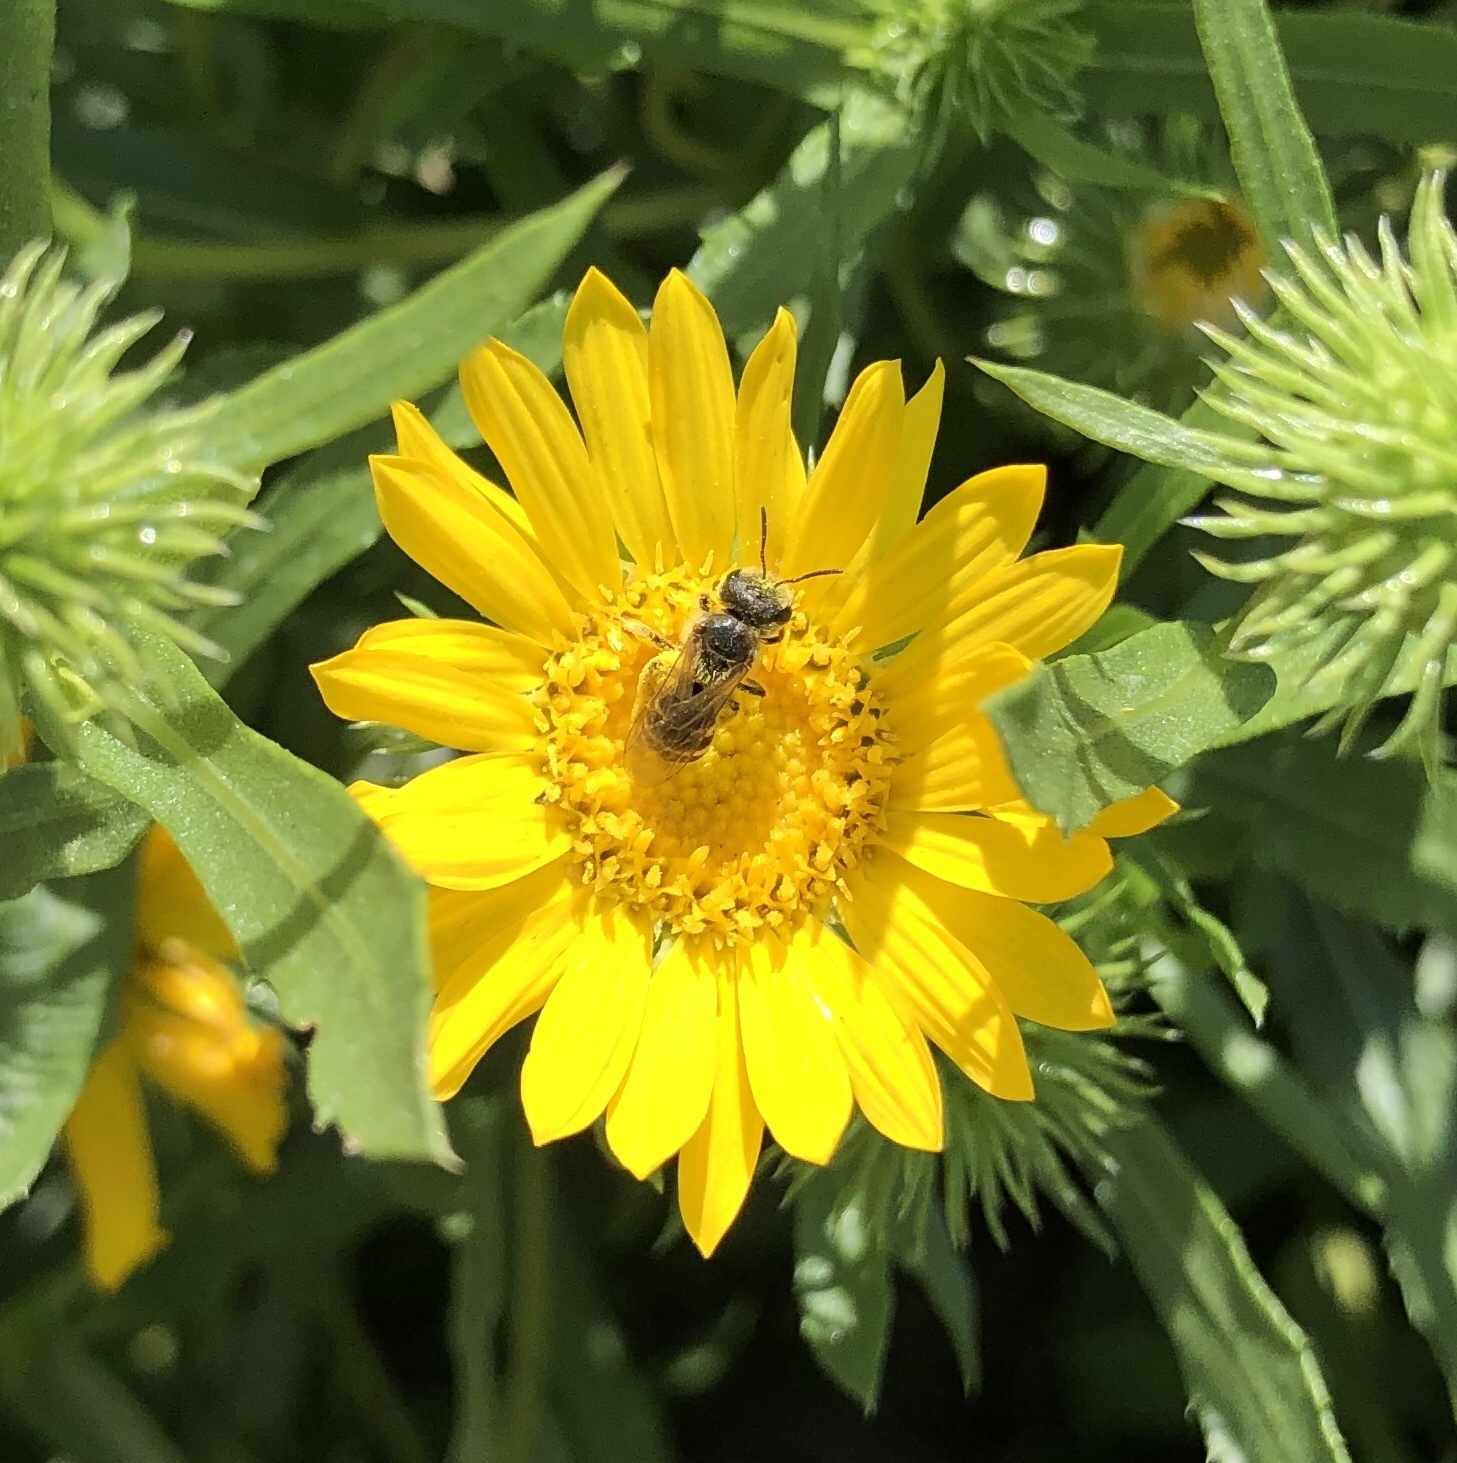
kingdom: Animalia
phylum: Arthropoda
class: Insecta
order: Hymenoptera
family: Halictidae
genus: Halictus
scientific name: Halictus ligatus
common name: Ligated furrow bee
